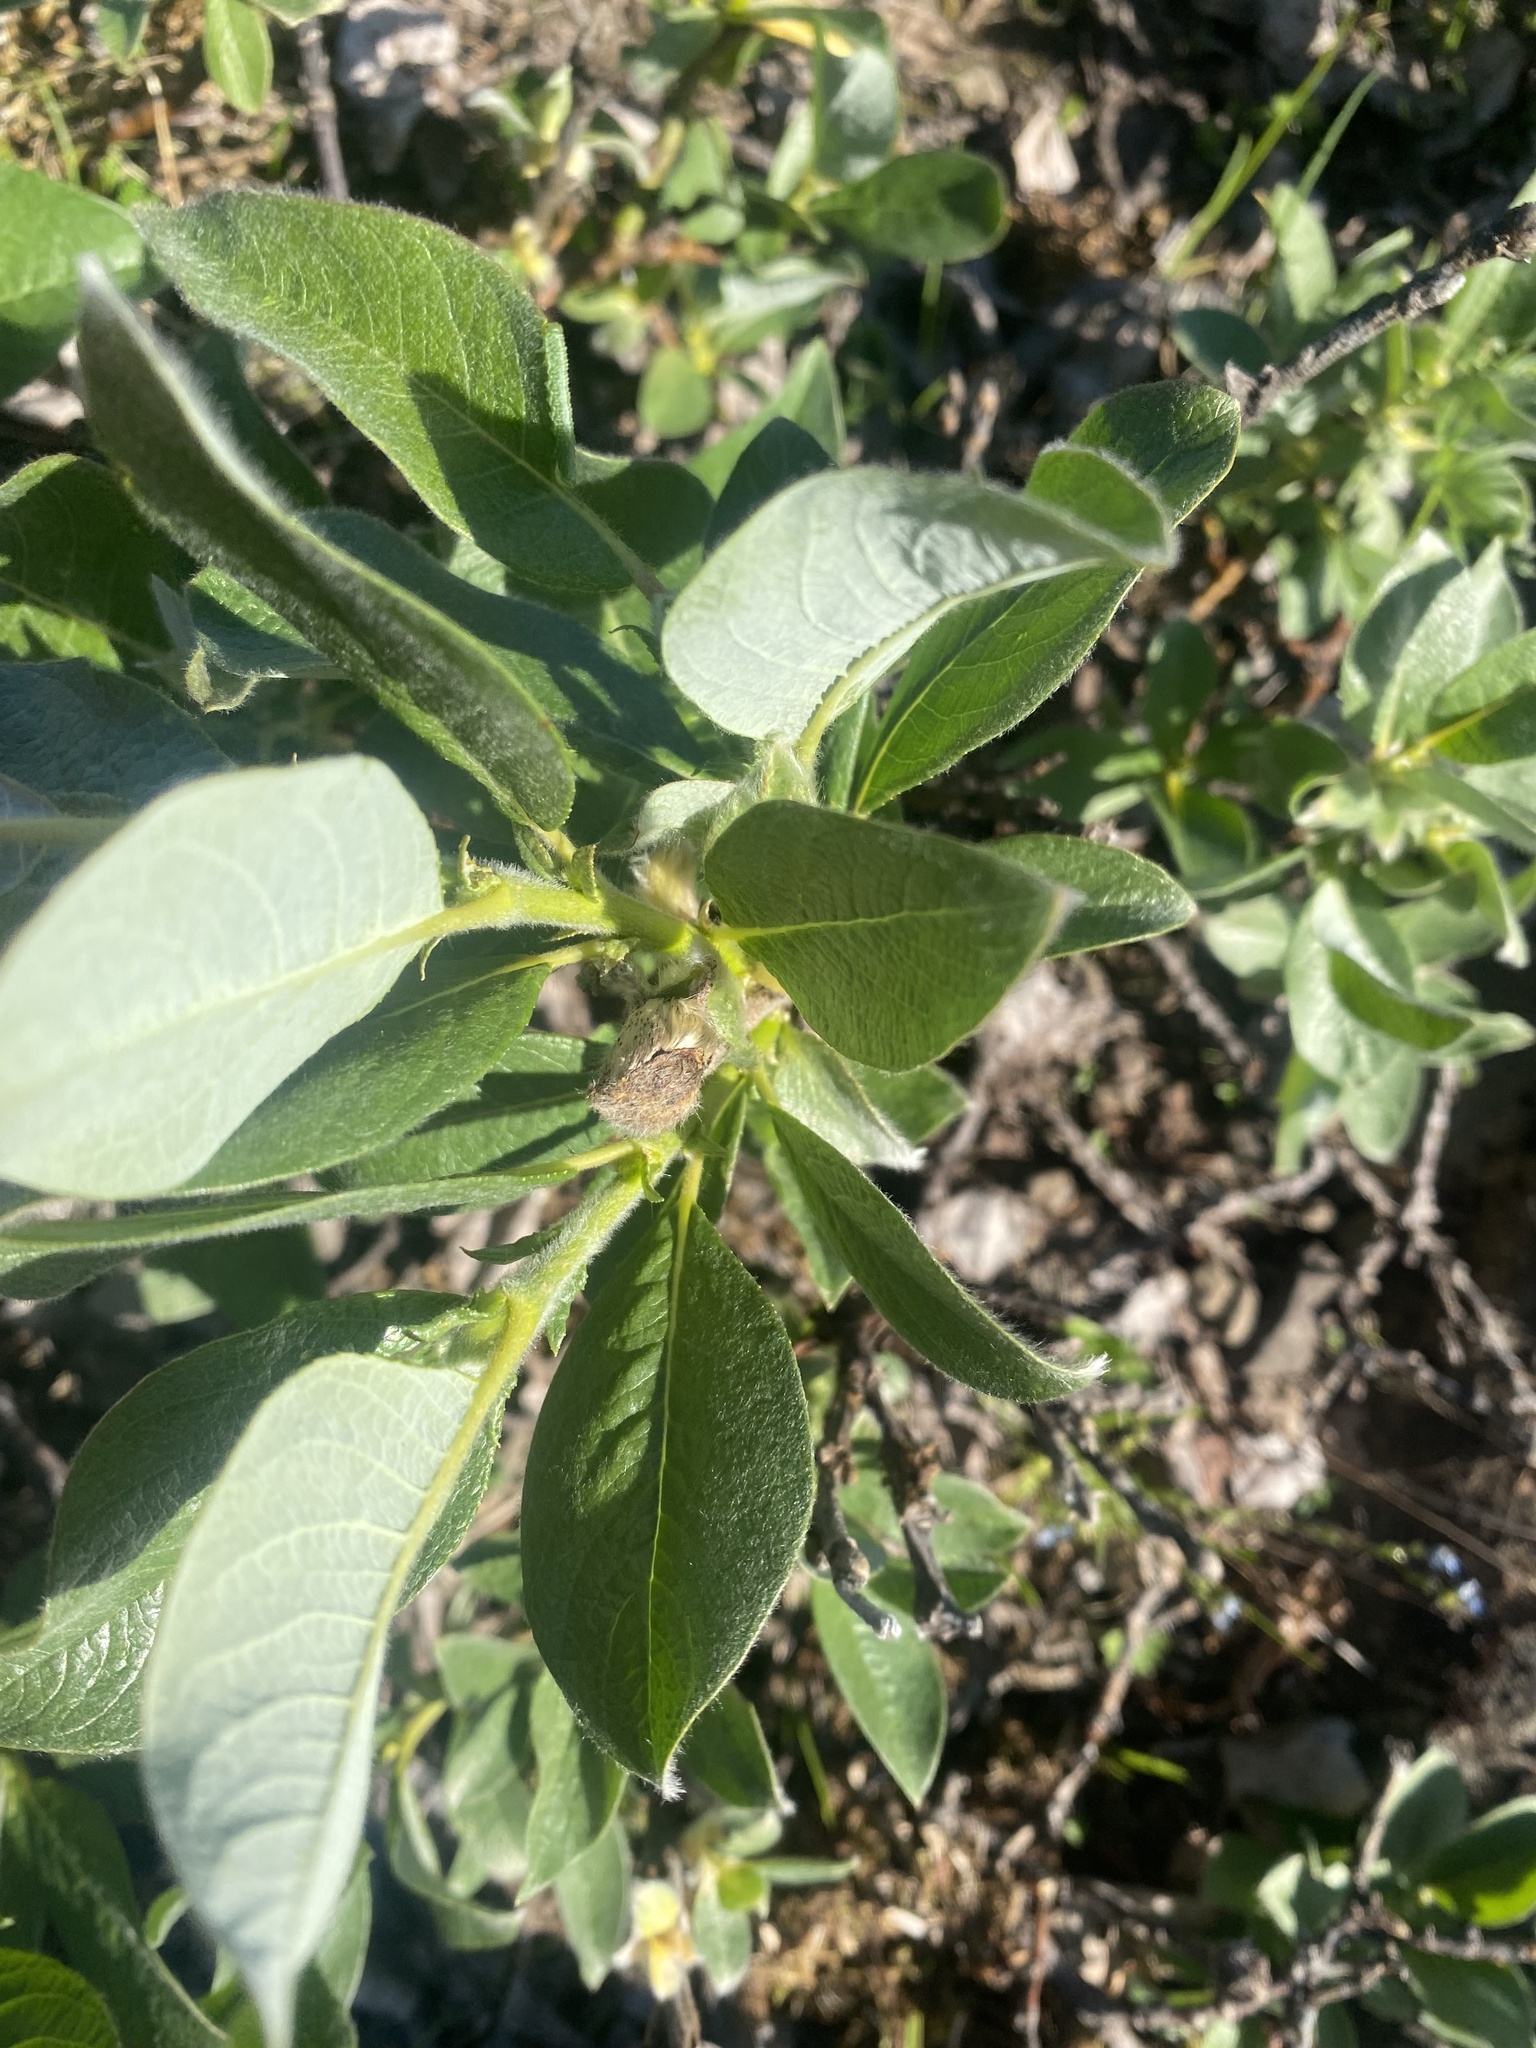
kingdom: Plantae
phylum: Tracheophyta
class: Magnoliopsida
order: Malpighiales
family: Salicaceae
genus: Salix
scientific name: Salix lanata
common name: Woolly willow
